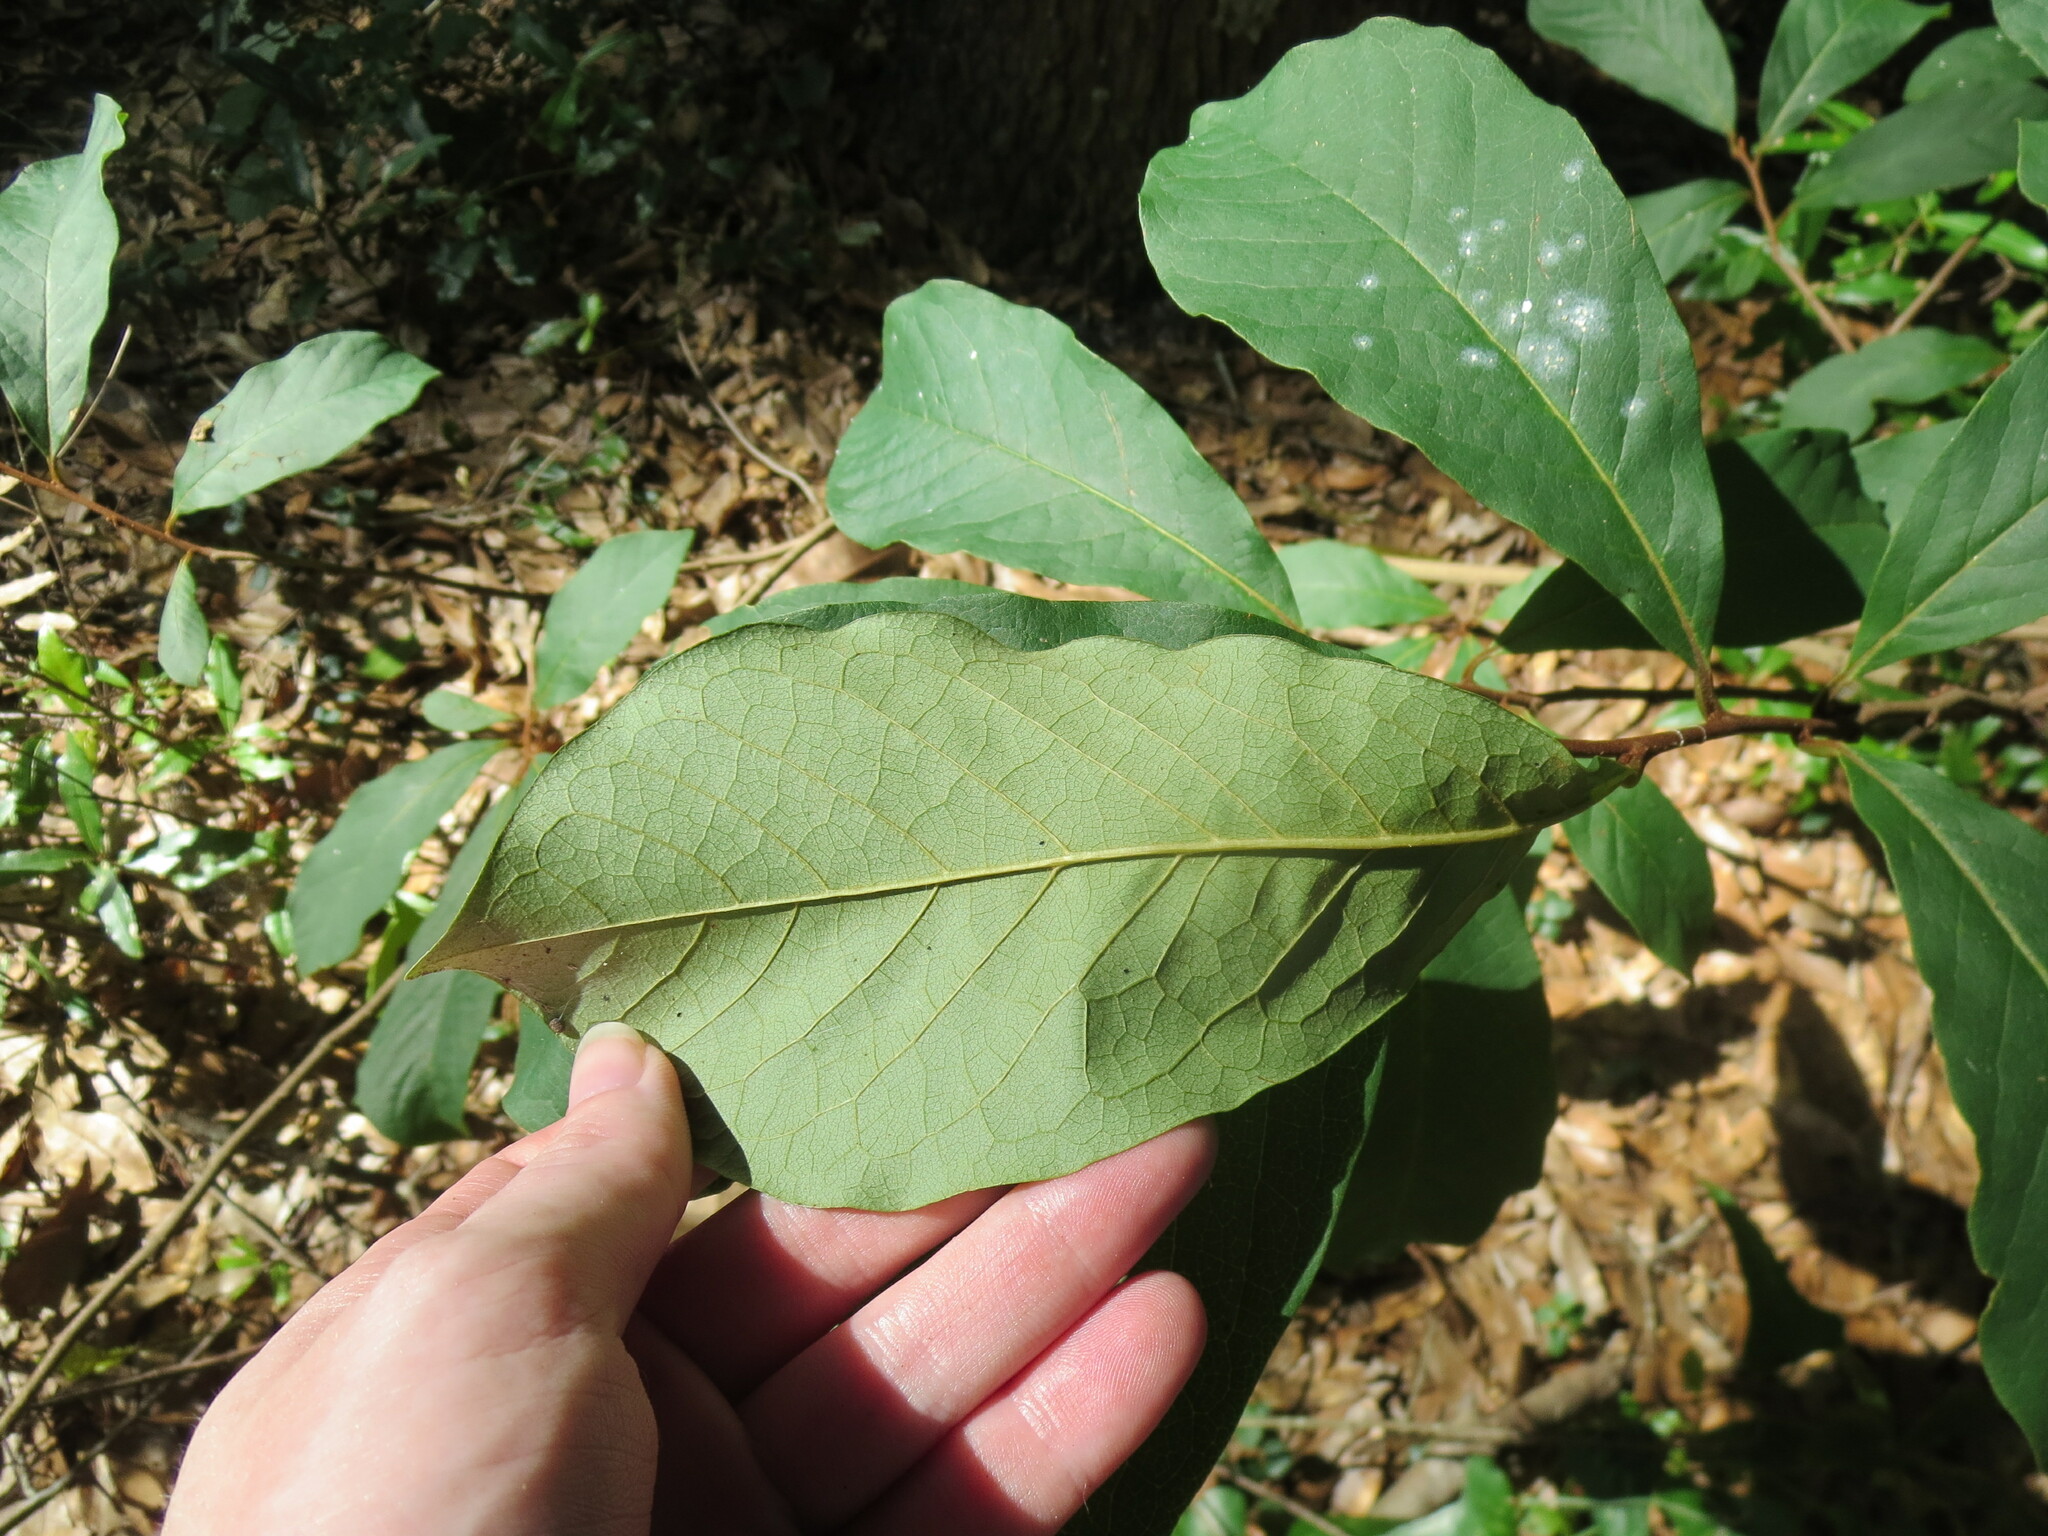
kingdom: Plantae
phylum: Tracheophyta
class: Magnoliopsida
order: Magnoliales
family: Annonaceae
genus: Asimina
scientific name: Asimina parviflora
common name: Dwarf pawpaw
